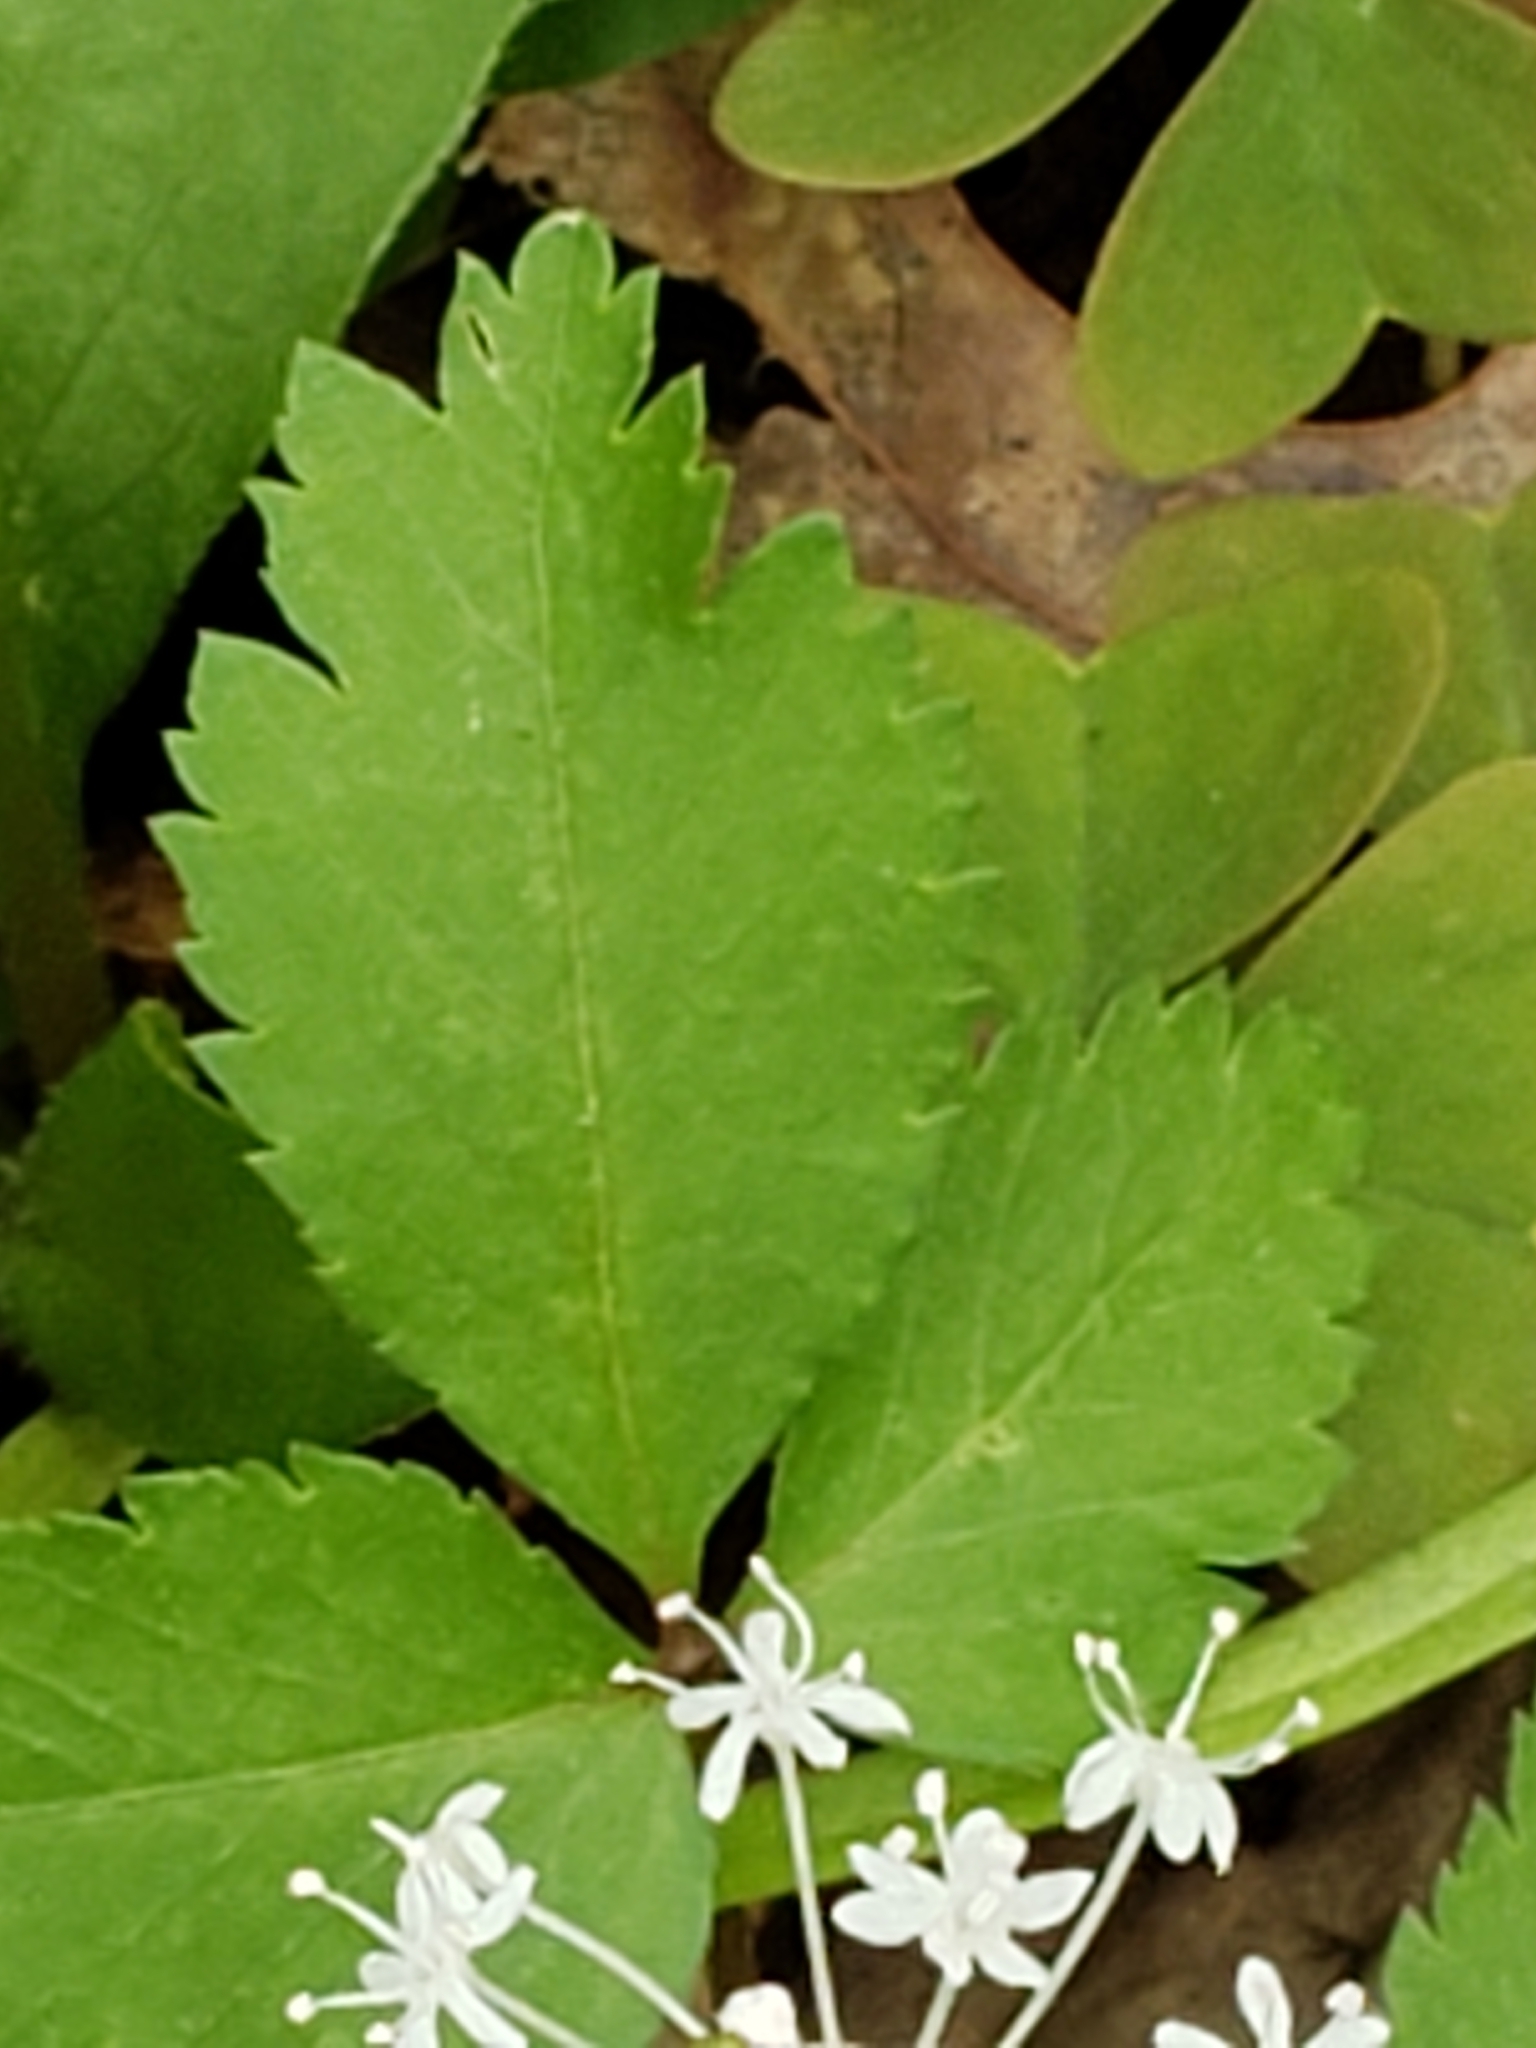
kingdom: Plantae
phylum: Tracheophyta
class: Magnoliopsida
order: Apiales
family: Araliaceae
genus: Panax
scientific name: Panax trifolius
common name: Dwarf ginseng
